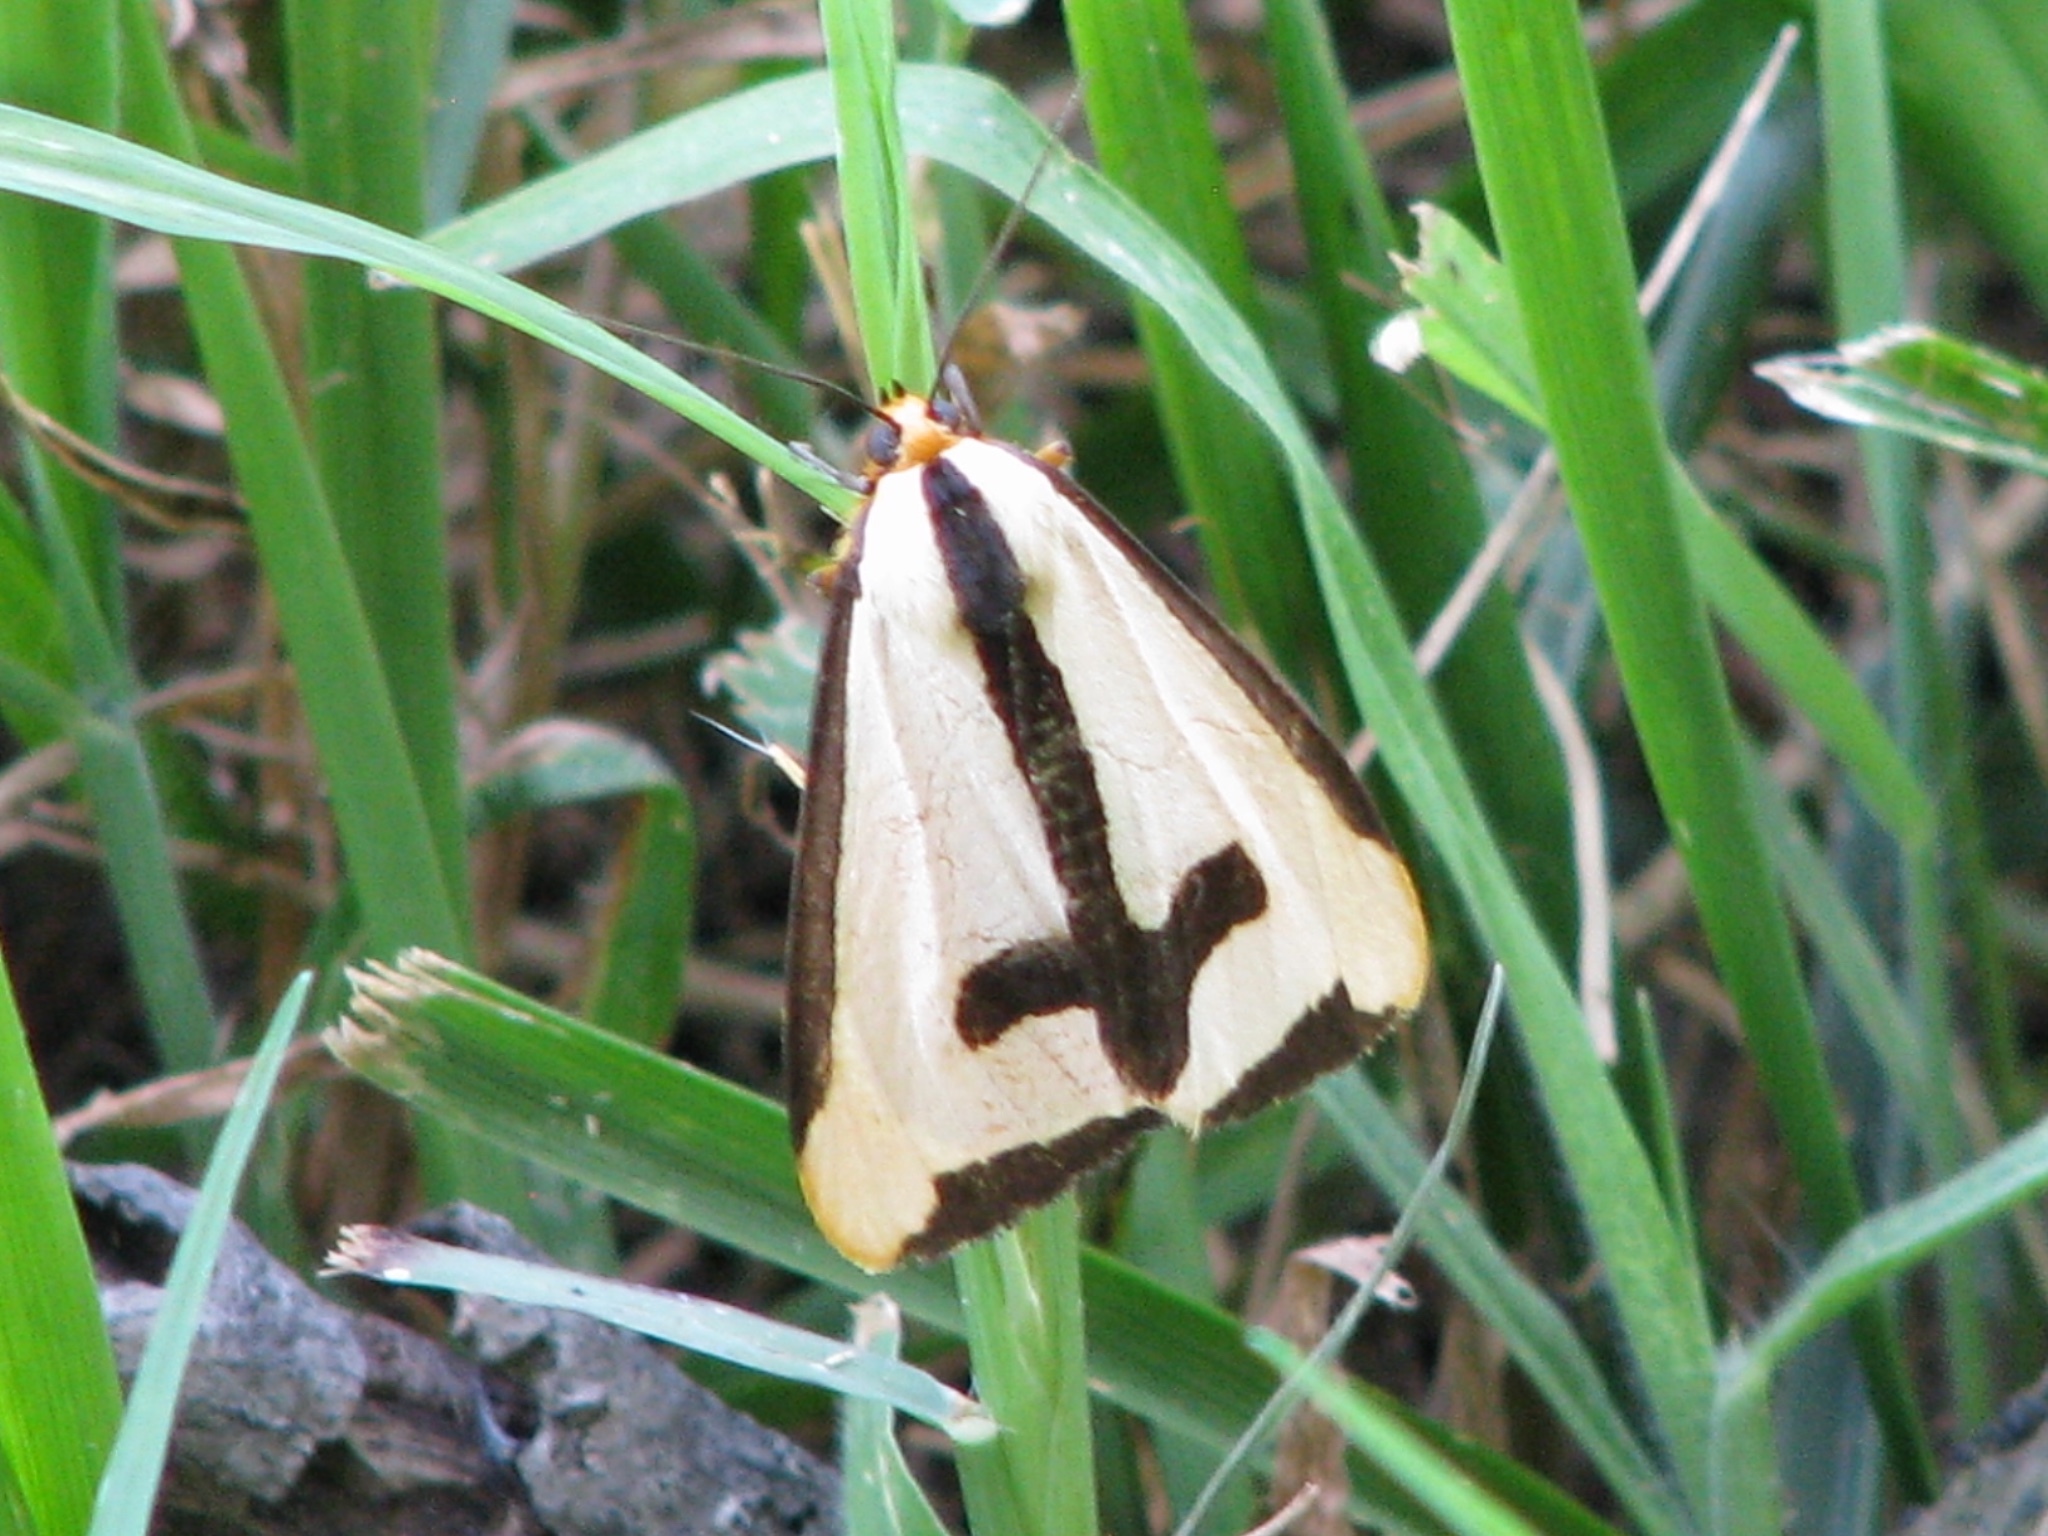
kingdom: Animalia
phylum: Arthropoda
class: Insecta
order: Lepidoptera
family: Erebidae
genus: Haploa
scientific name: Haploa clymene
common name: Clymene moth
